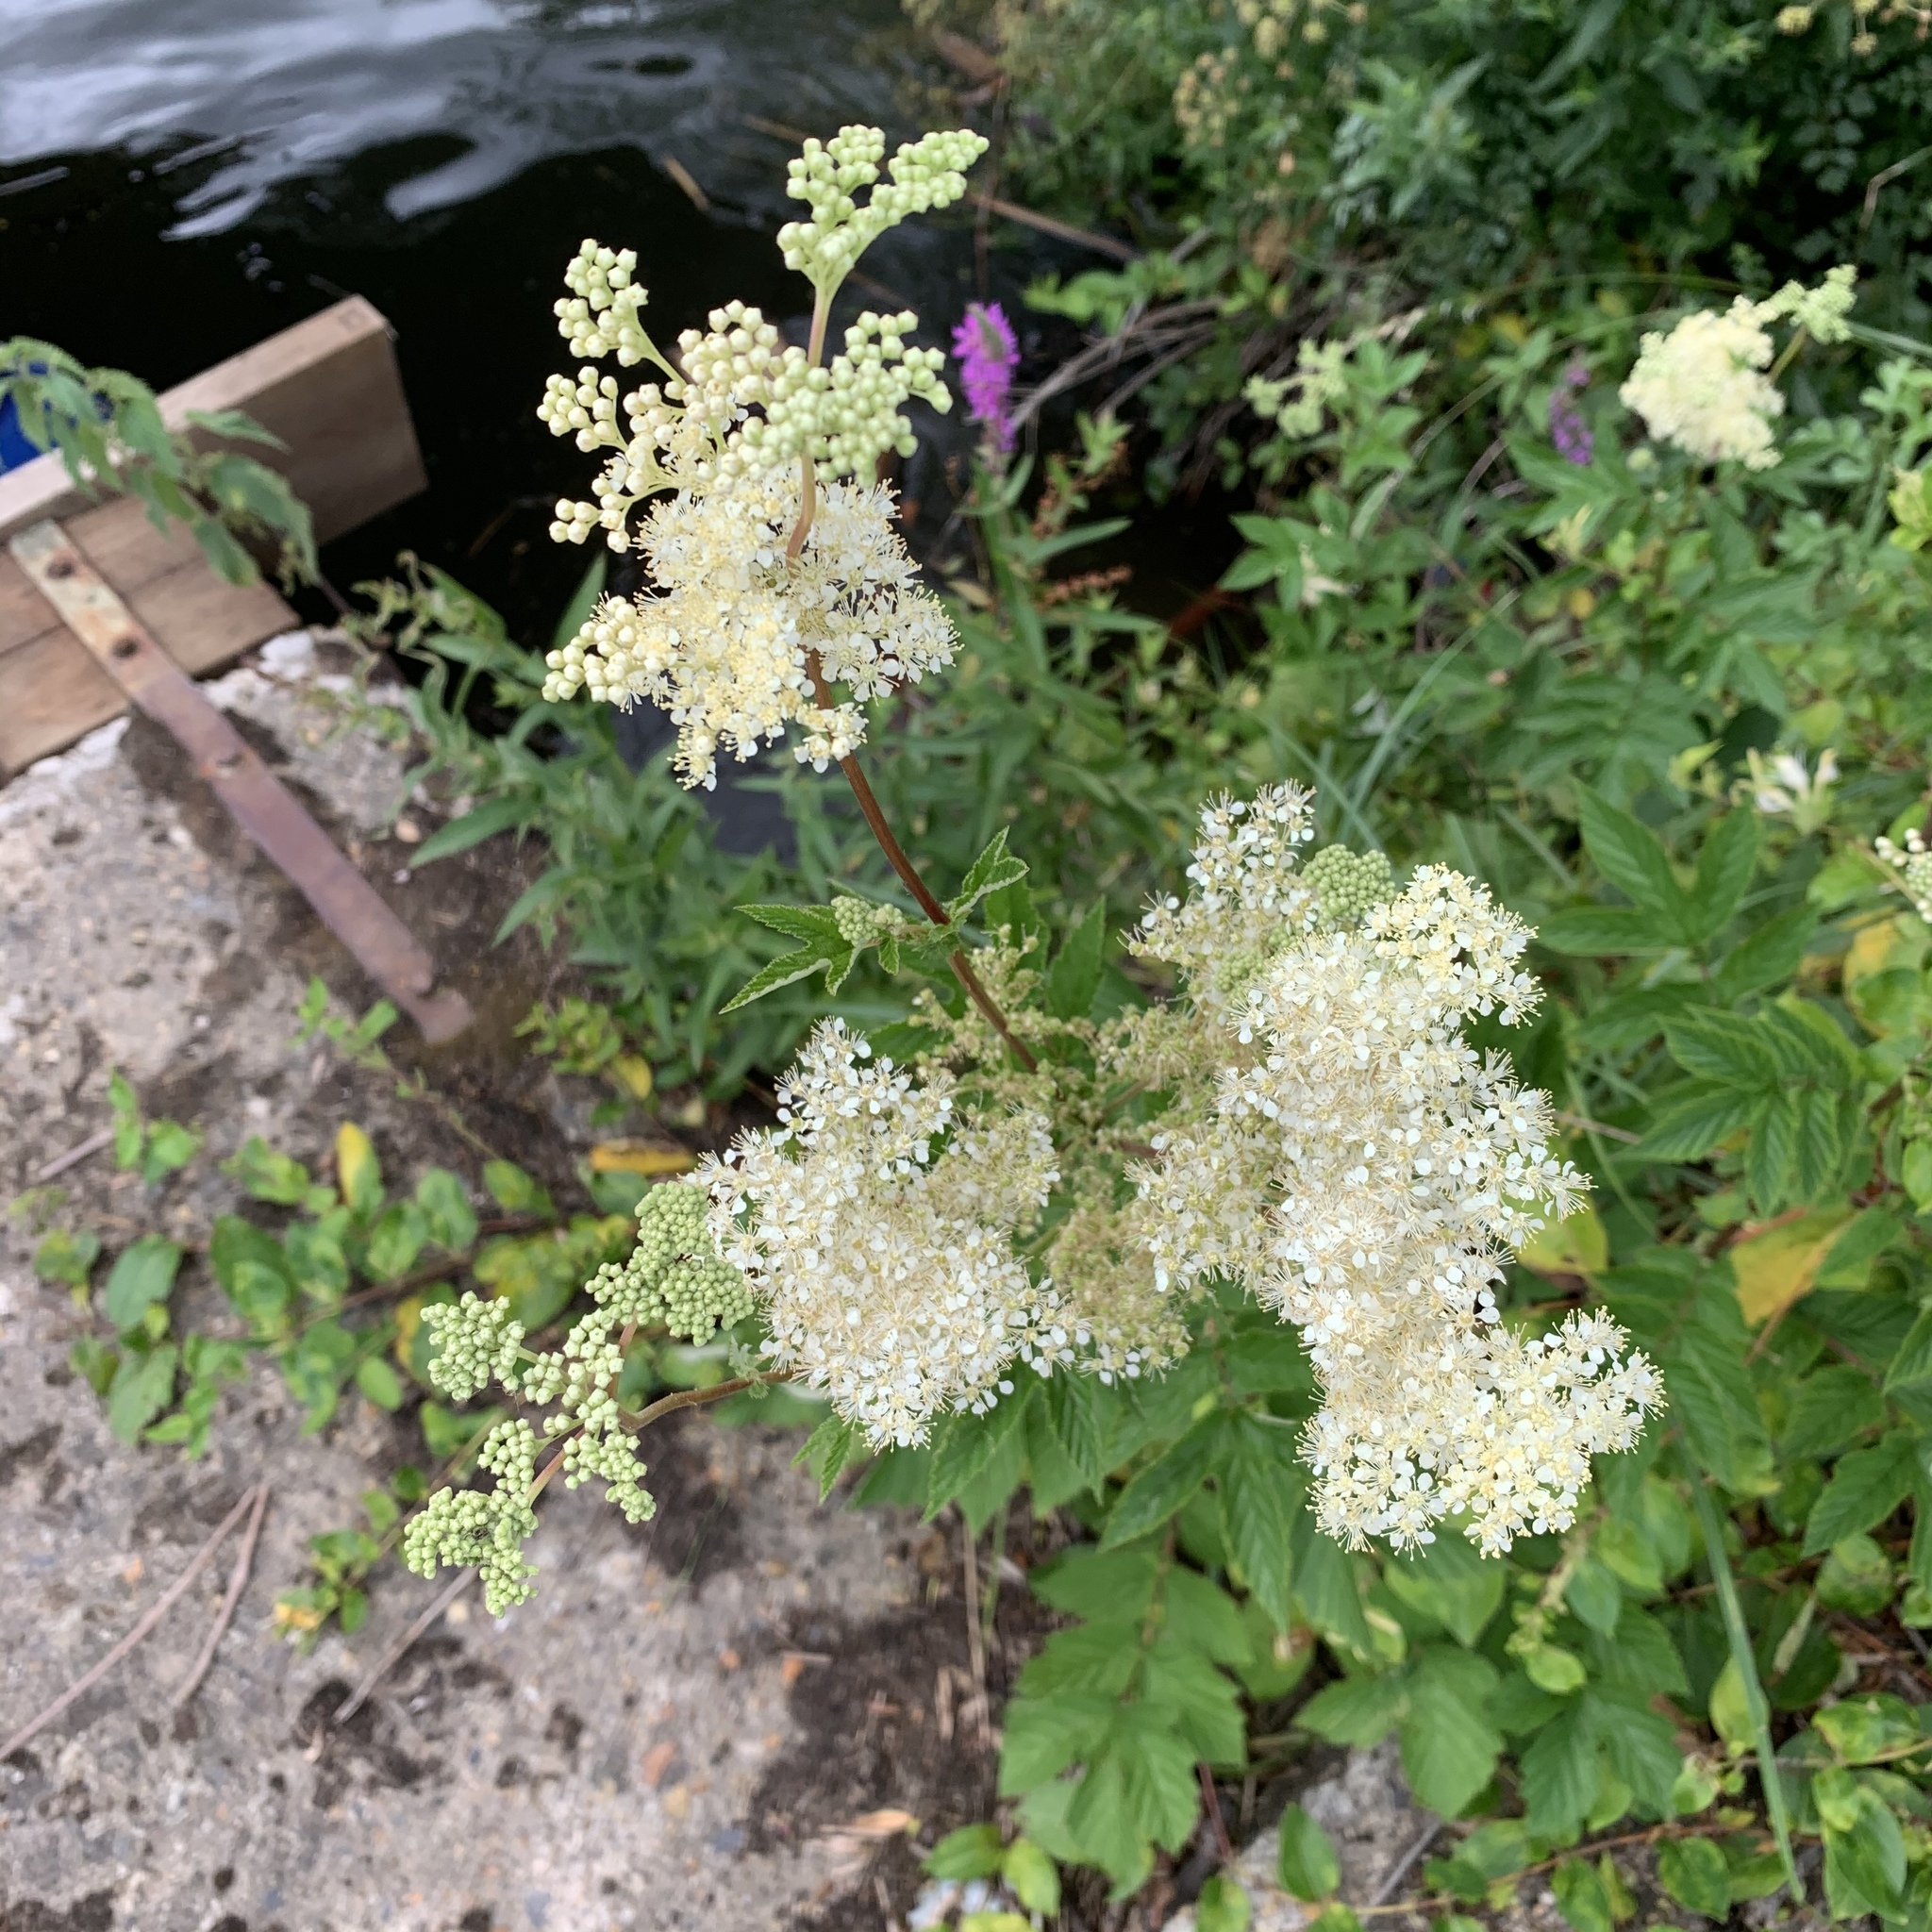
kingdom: Plantae
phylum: Tracheophyta
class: Magnoliopsida
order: Rosales
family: Rosaceae
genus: Filipendula
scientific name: Filipendula ulmaria
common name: Meadowsweet
